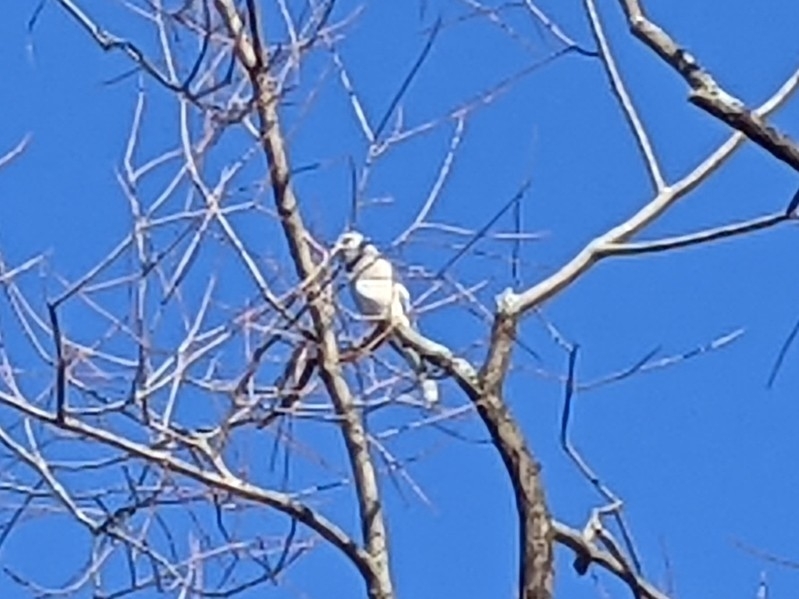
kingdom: Animalia
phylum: Chordata
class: Aves
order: Passeriformes
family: Corvidae
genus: Cyanocitta
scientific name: Cyanocitta cristata
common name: Blue jay
